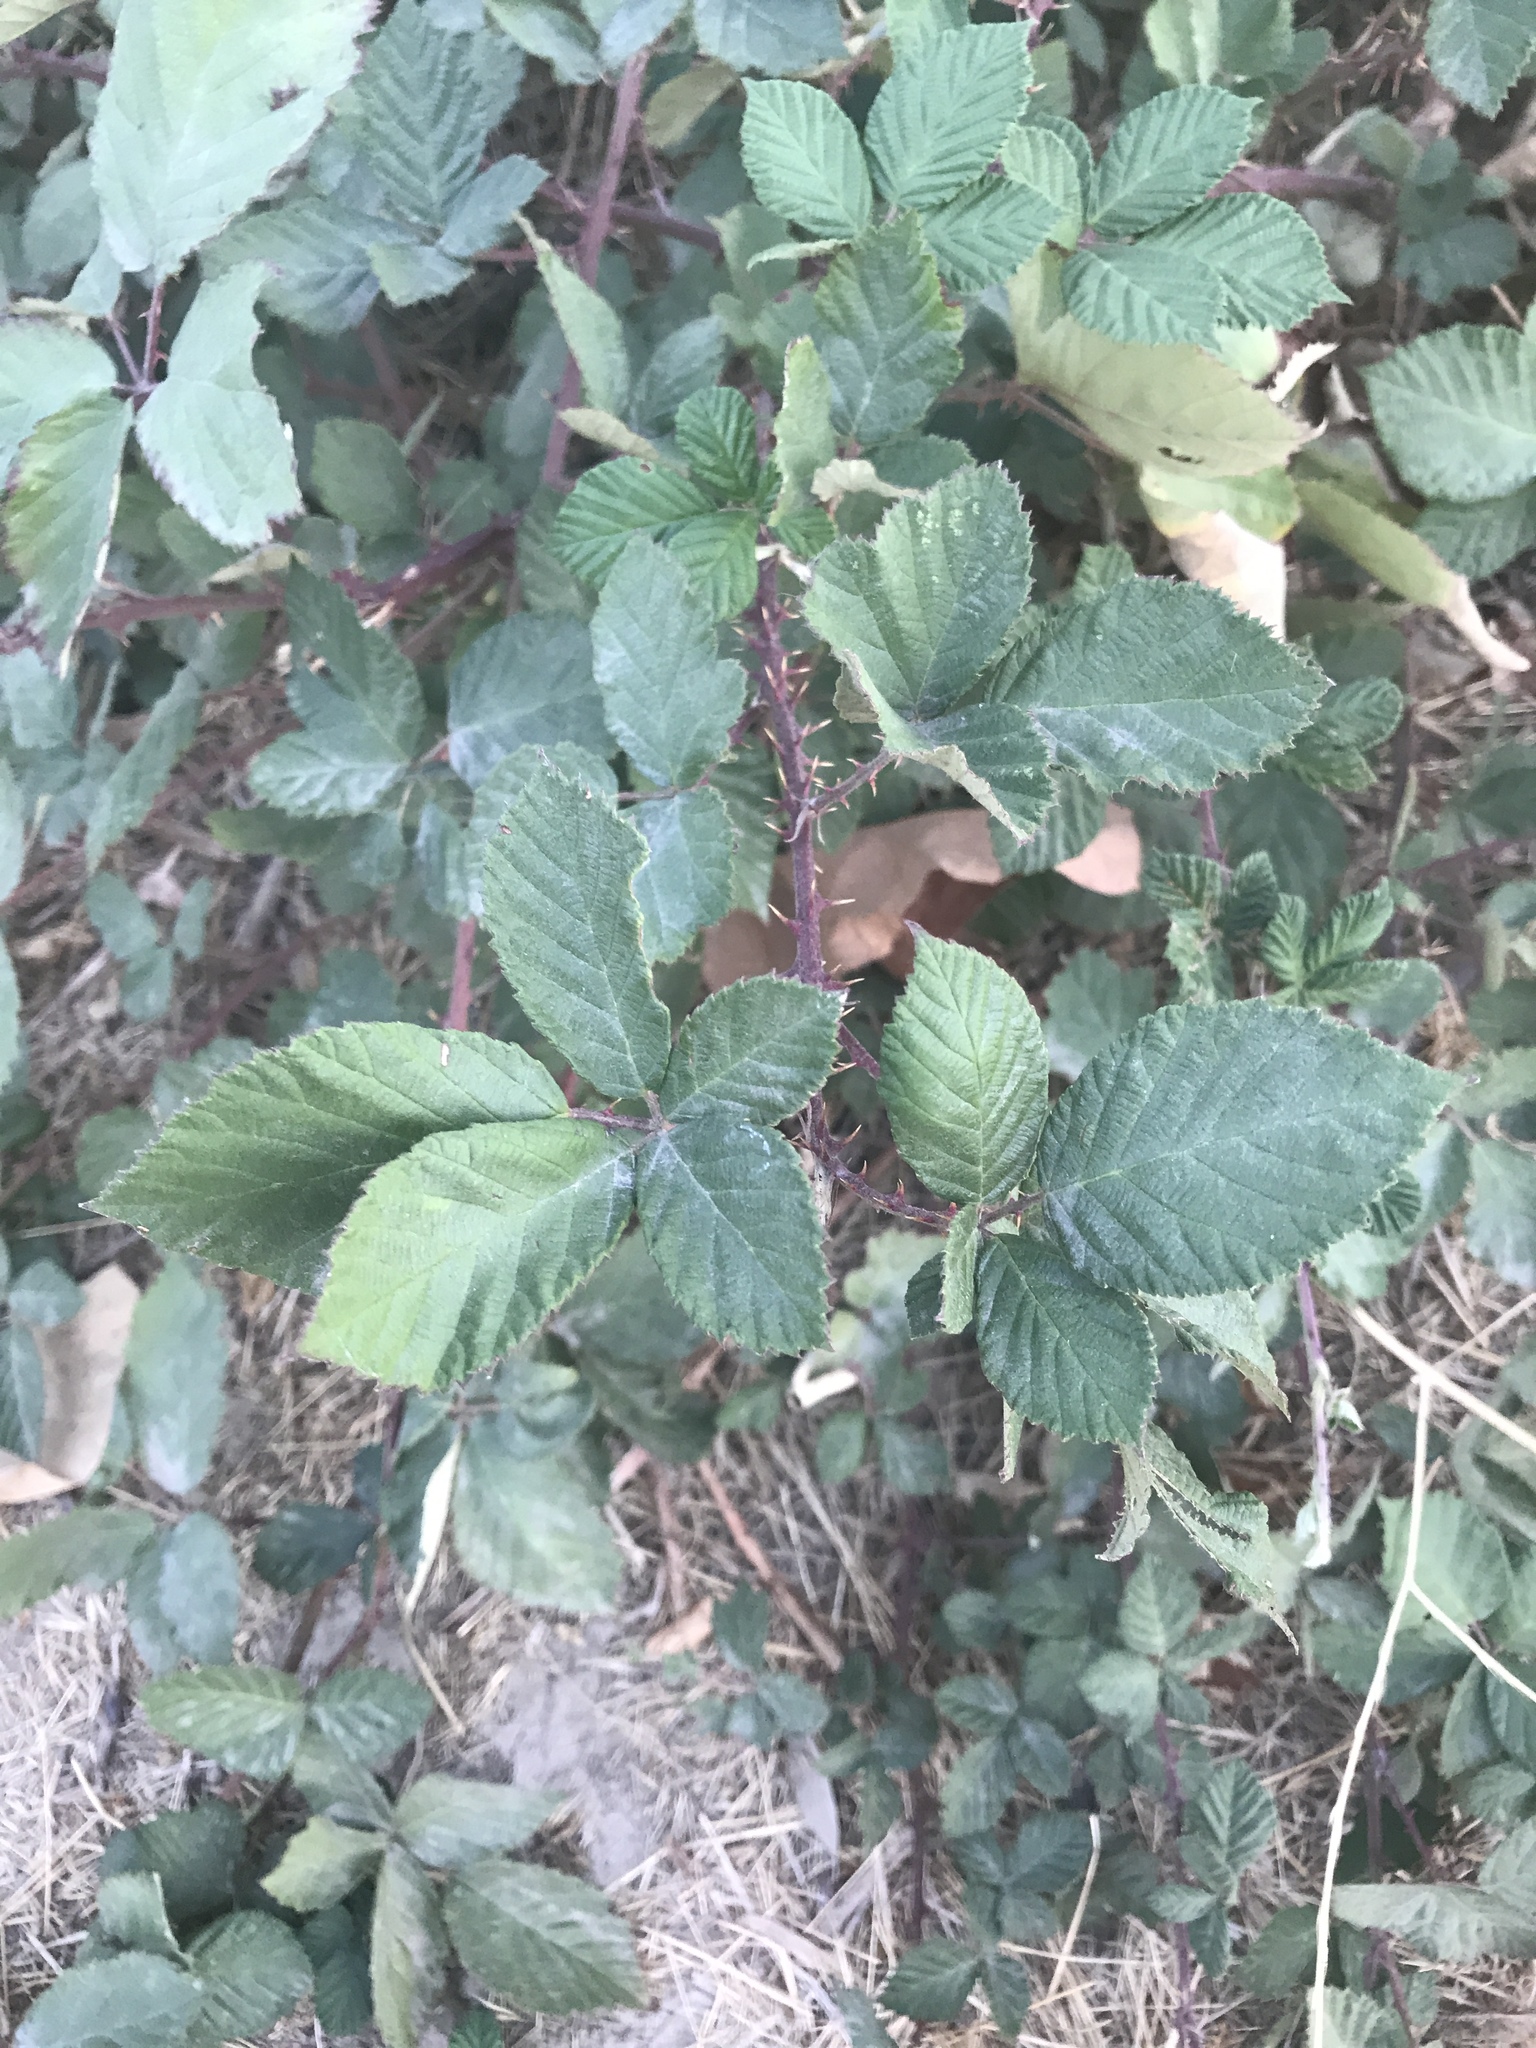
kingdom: Plantae
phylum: Tracheophyta
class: Magnoliopsida
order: Rosales
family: Rosaceae
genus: Rubus
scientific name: Rubus armeniacus
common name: Himalayan blackberry
